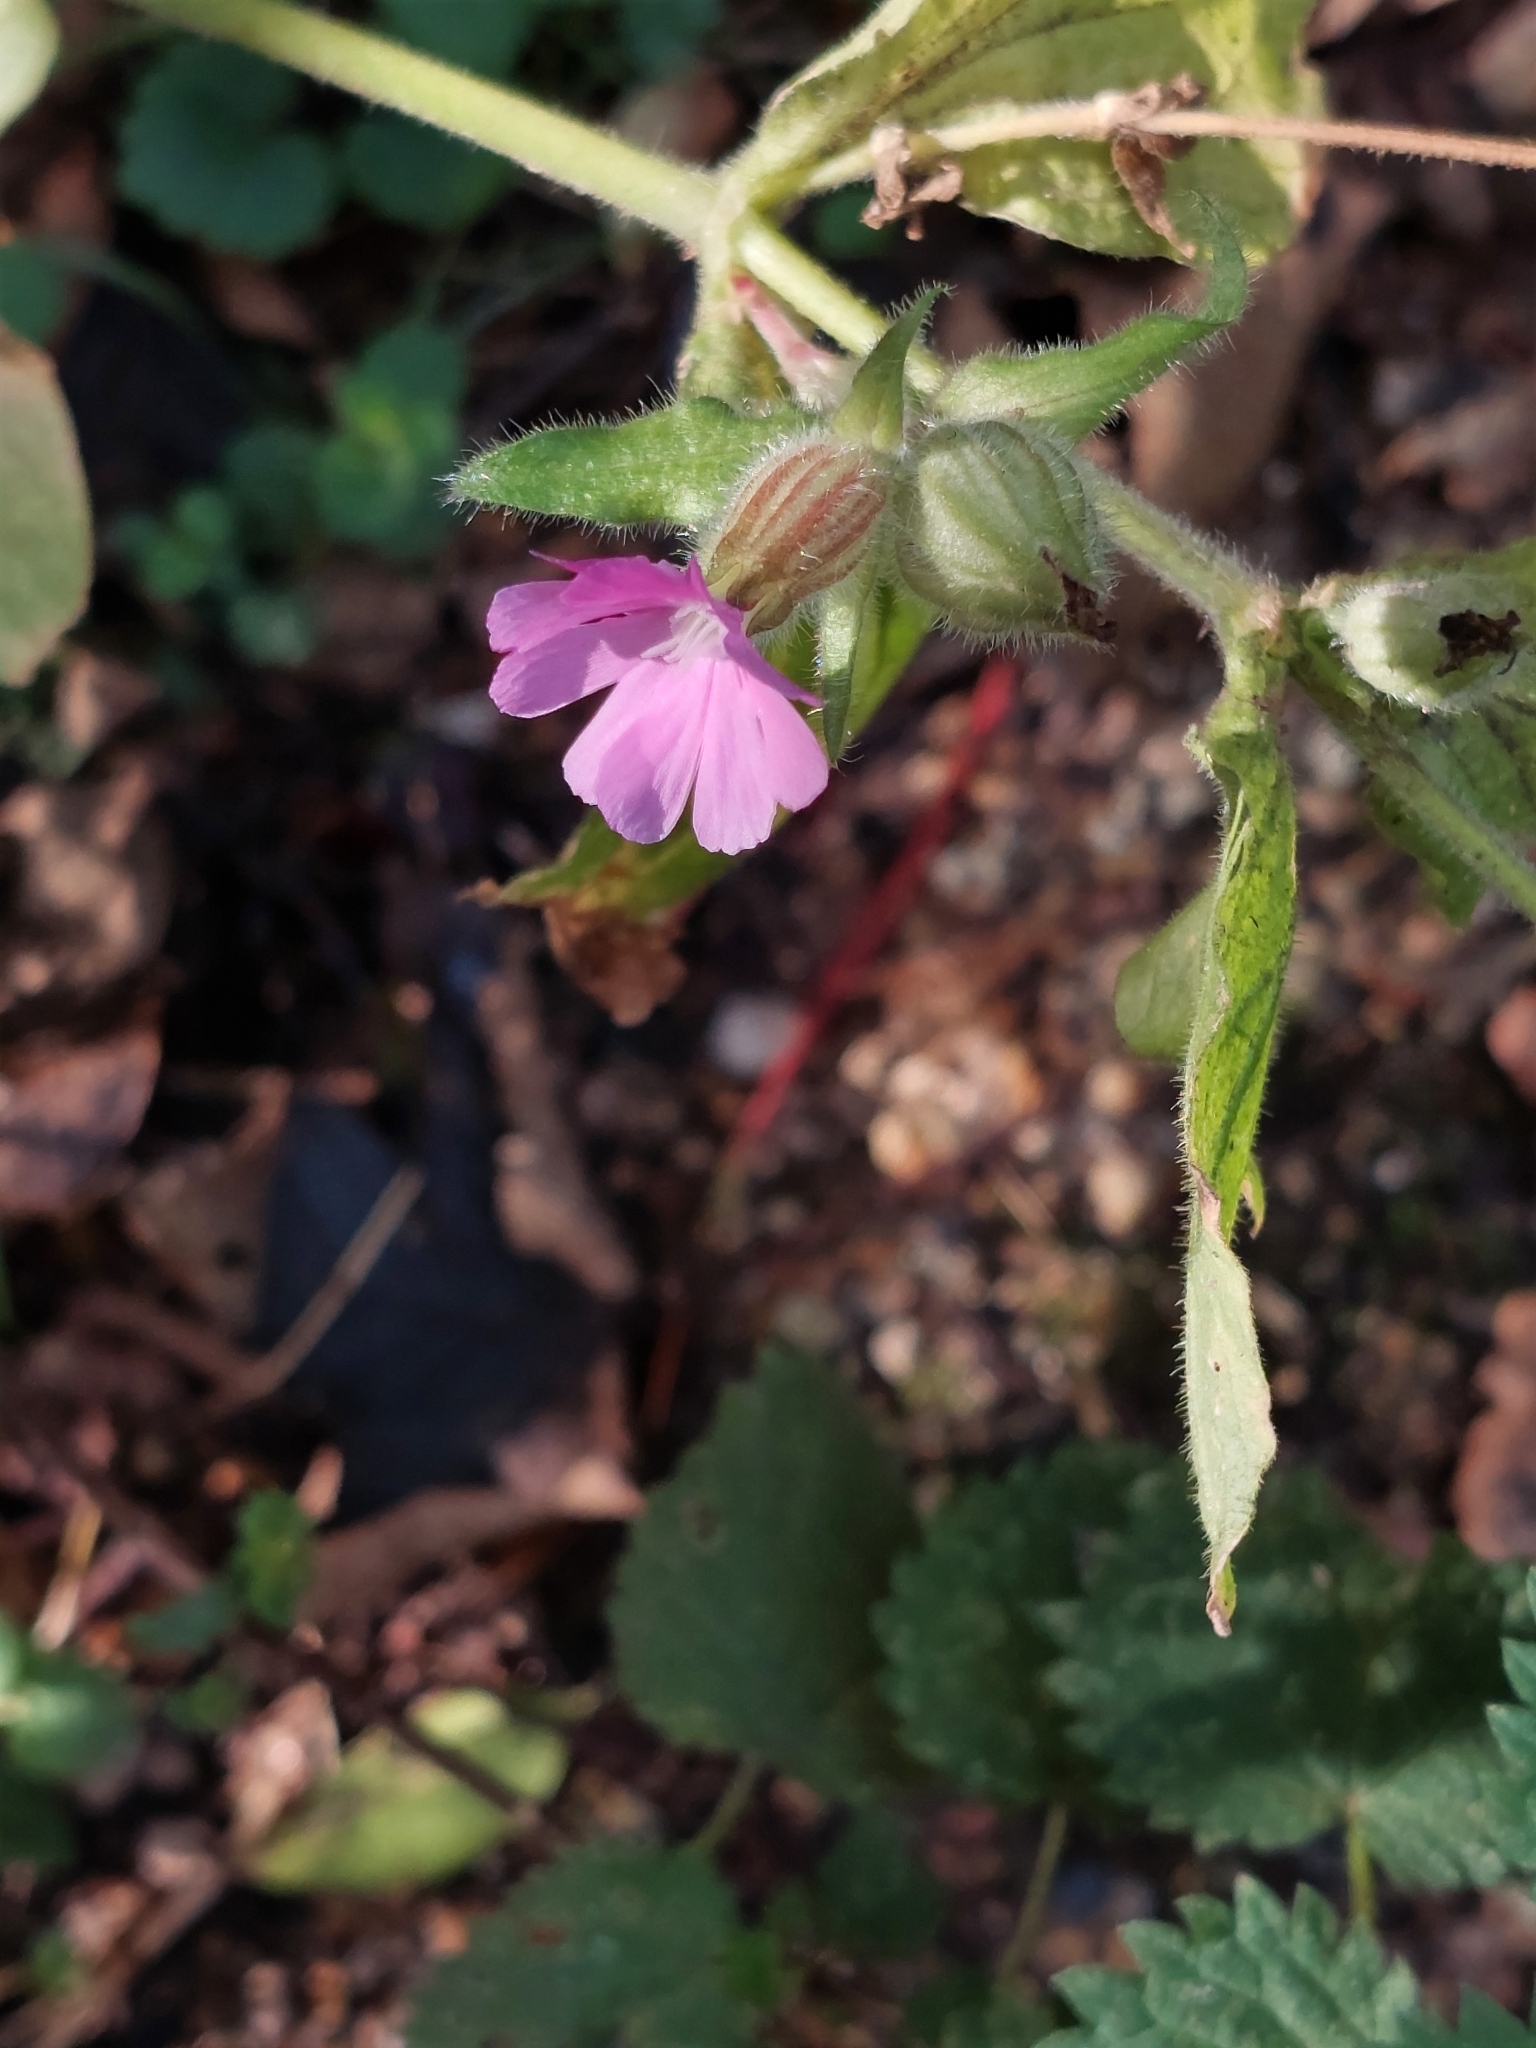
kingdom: Plantae
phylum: Tracheophyta
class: Magnoliopsida
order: Caryophyllales
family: Caryophyllaceae
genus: Silene
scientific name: Silene dioica
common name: Red campion
